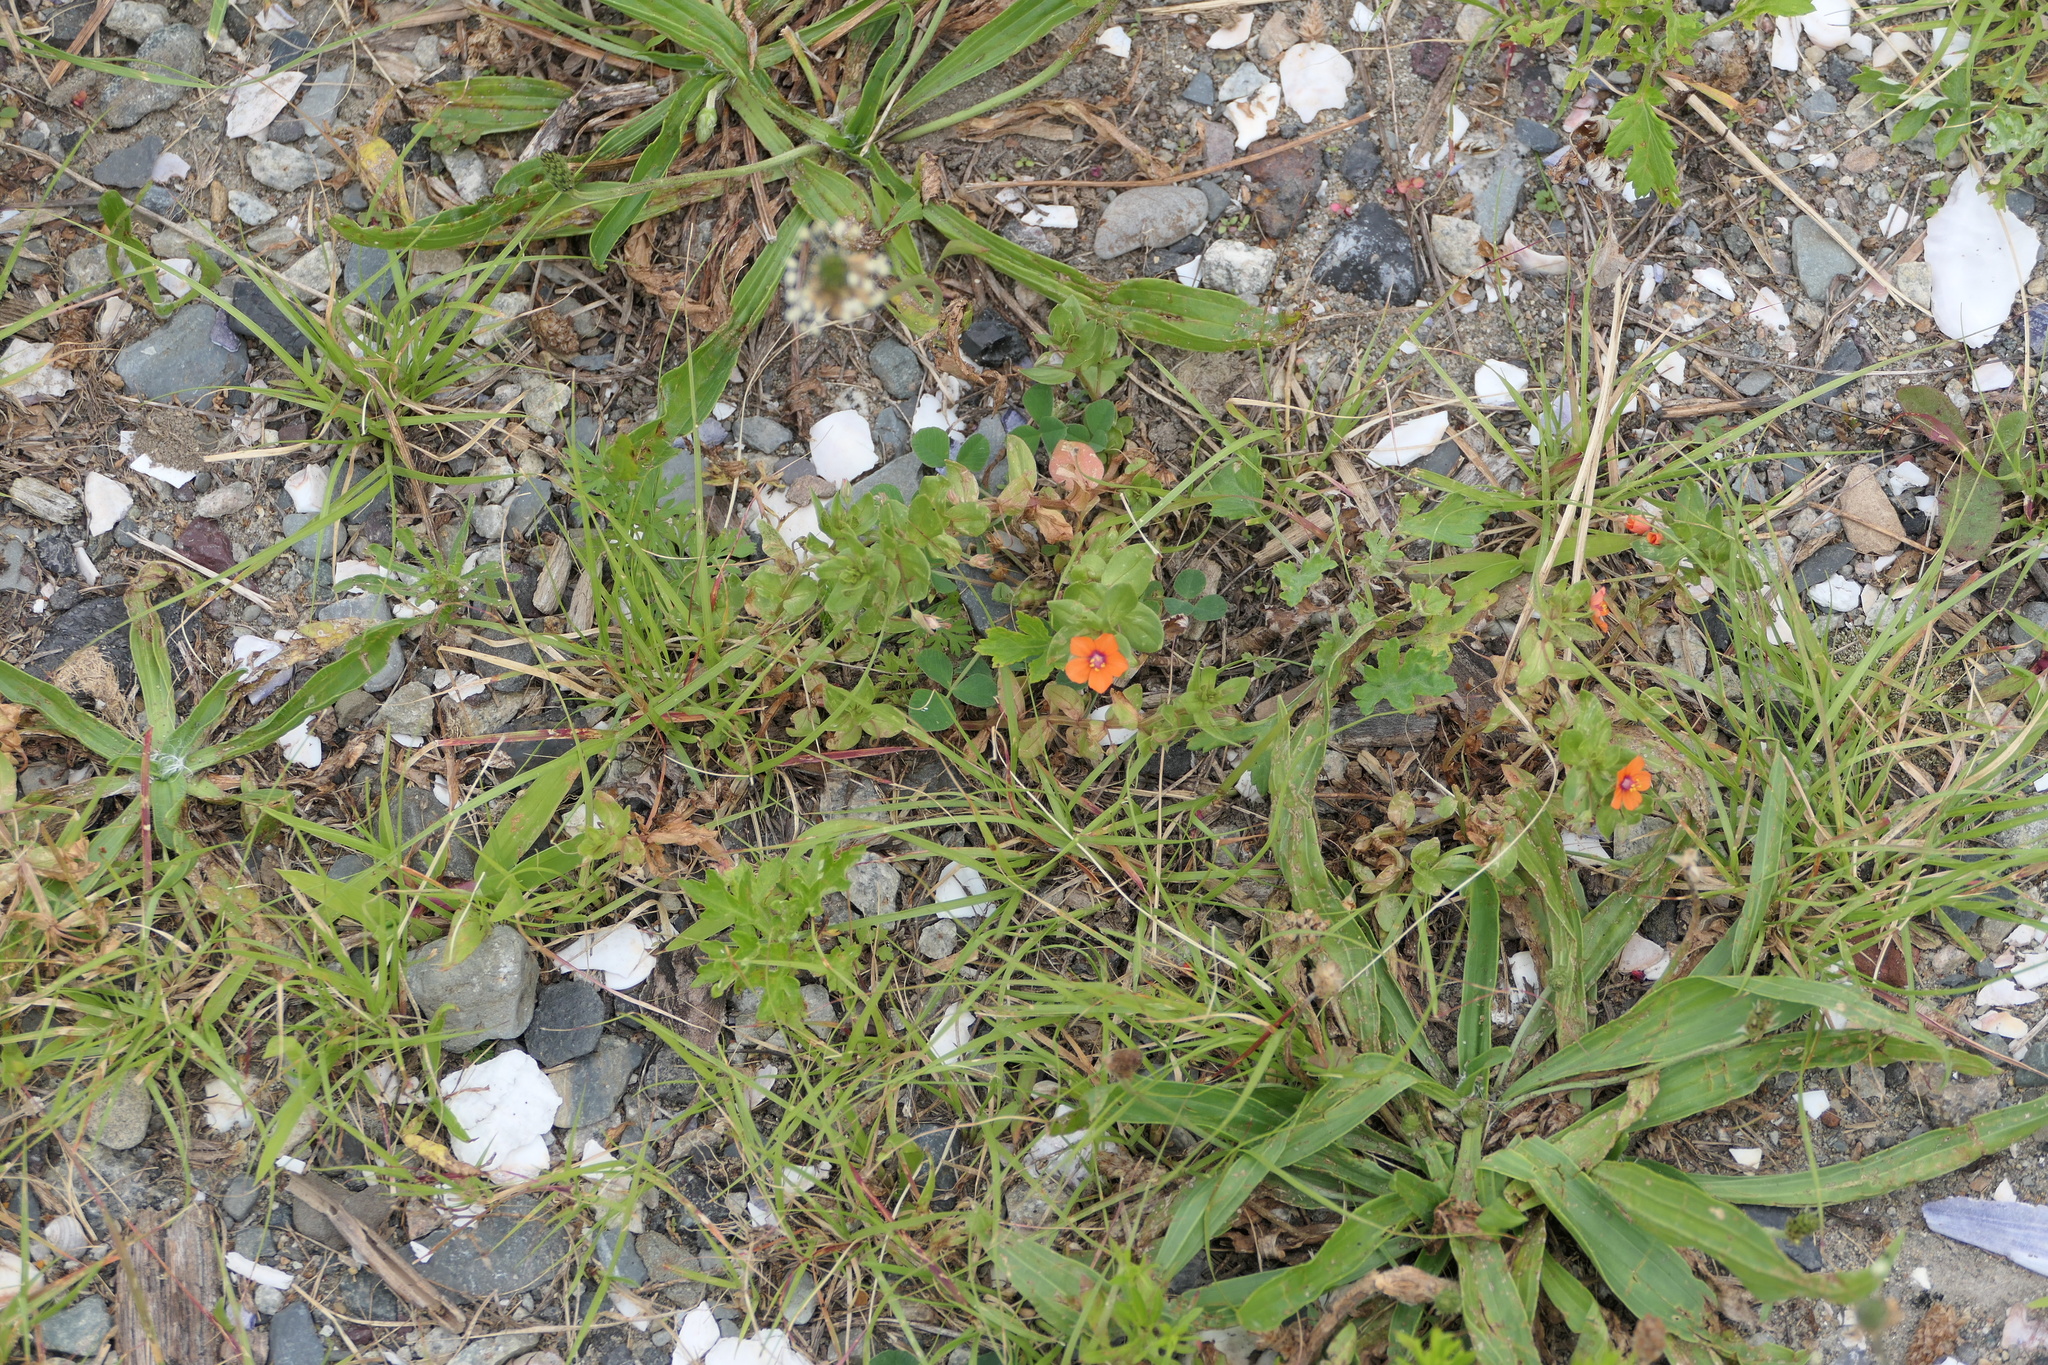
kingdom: Plantae
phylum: Tracheophyta
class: Magnoliopsida
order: Ericales
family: Primulaceae
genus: Lysimachia
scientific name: Lysimachia arvensis
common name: Scarlet pimpernel
